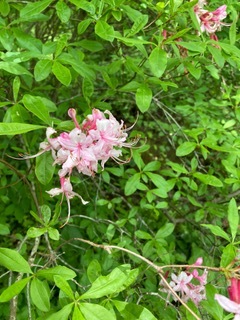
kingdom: Plantae
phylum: Tracheophyta
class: Magnoliopsida
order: Ericales
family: Ericaceae
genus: Rhododendron
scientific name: Rhododendron periclymenoides
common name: Election-pink
